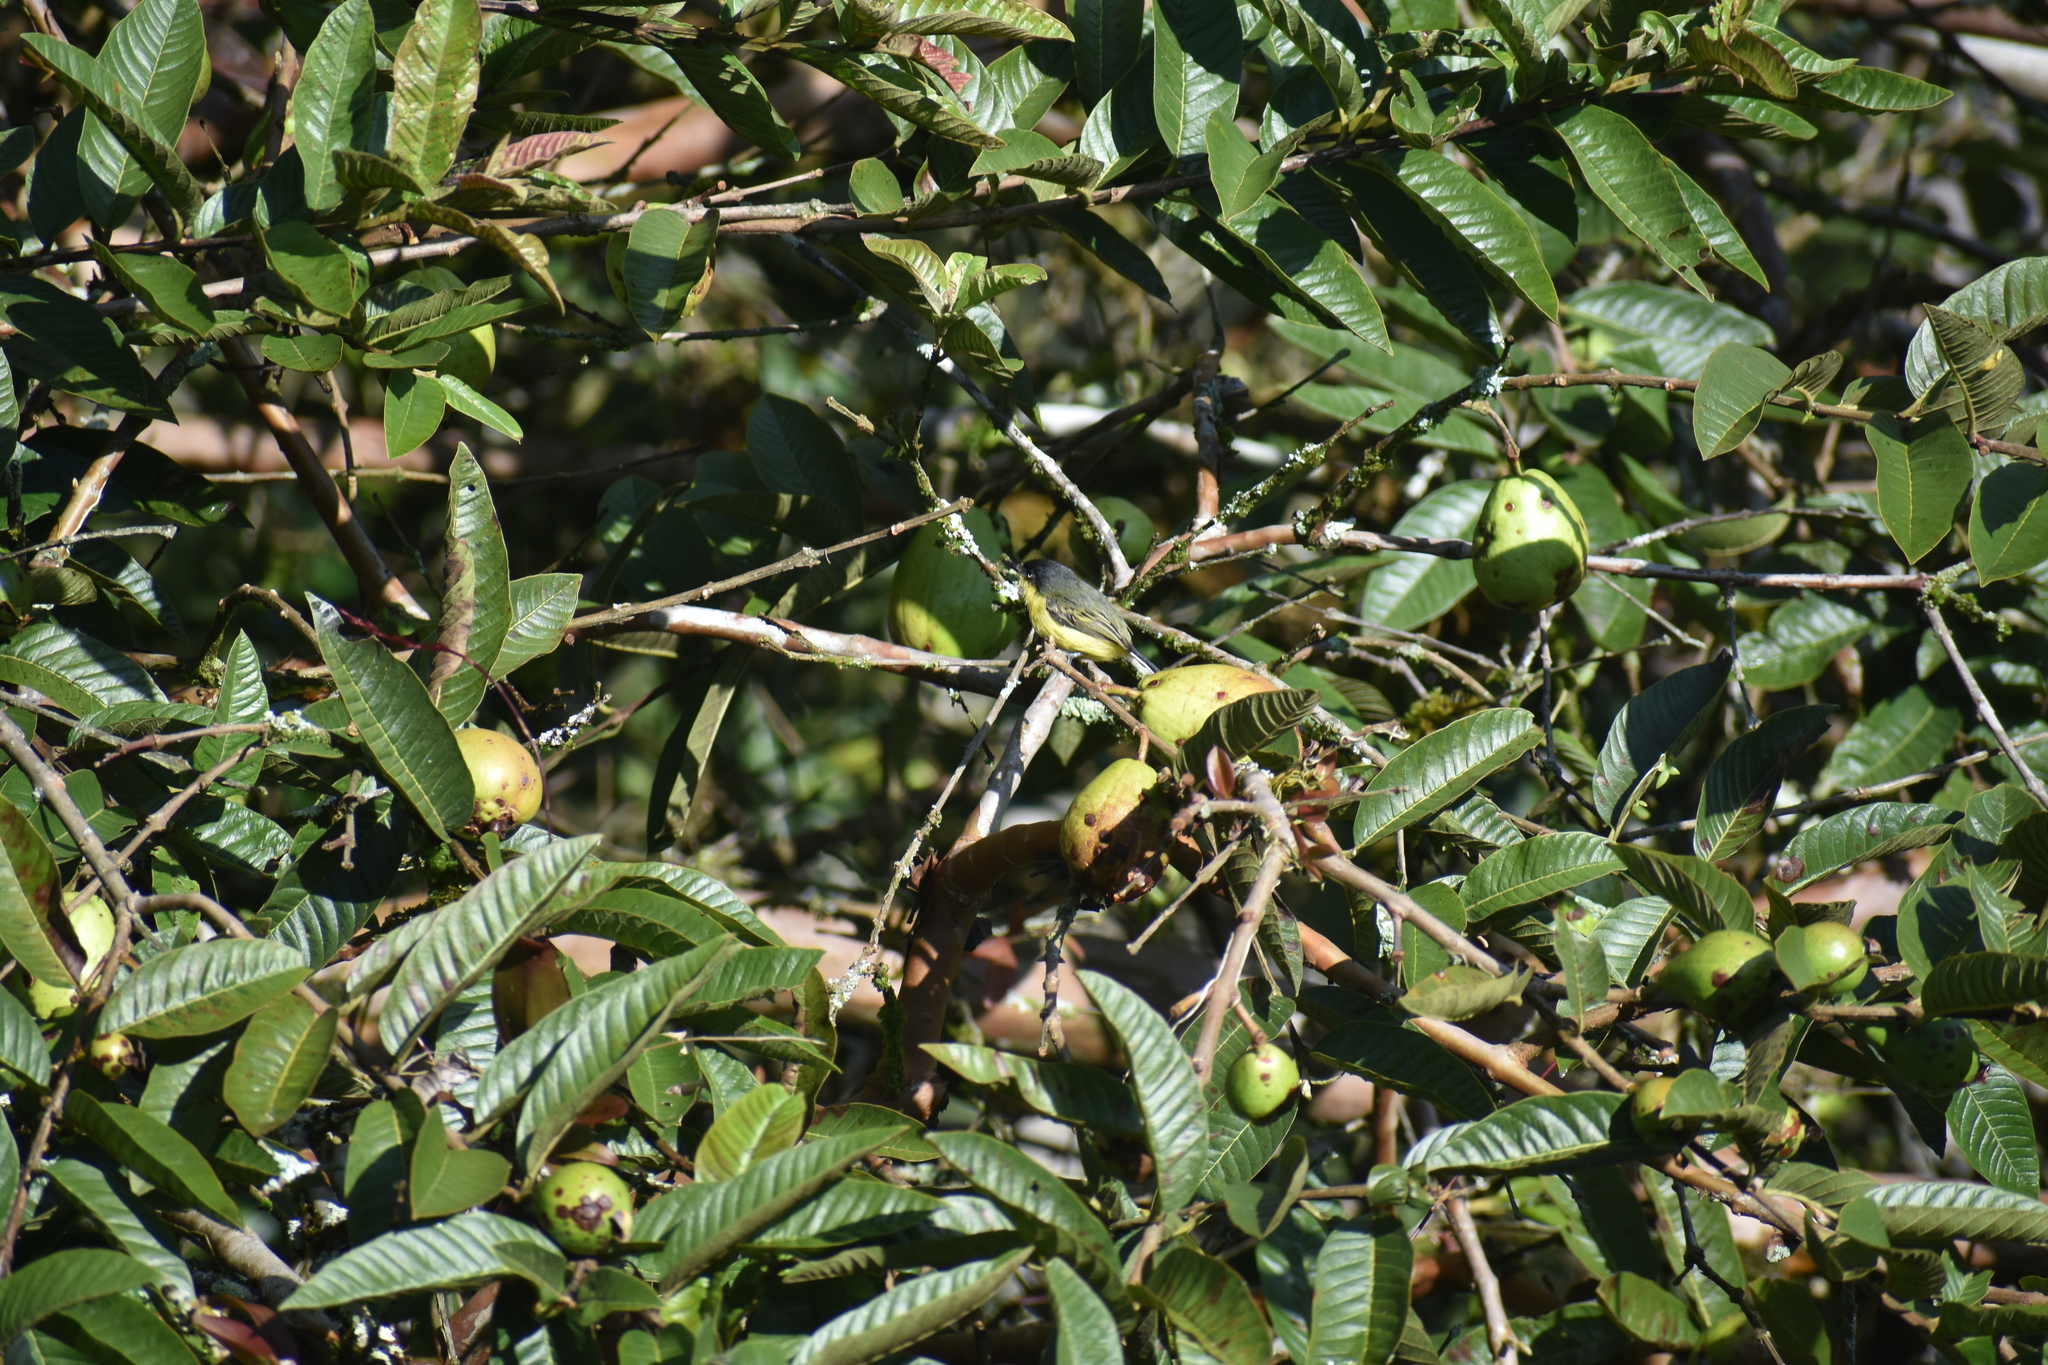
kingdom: Animalia
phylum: Chordata
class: Aves
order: Passeriformes
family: Tyrannidae
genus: Todirostrum
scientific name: Todirostrum cinereum
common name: Common tody-flycatcher
